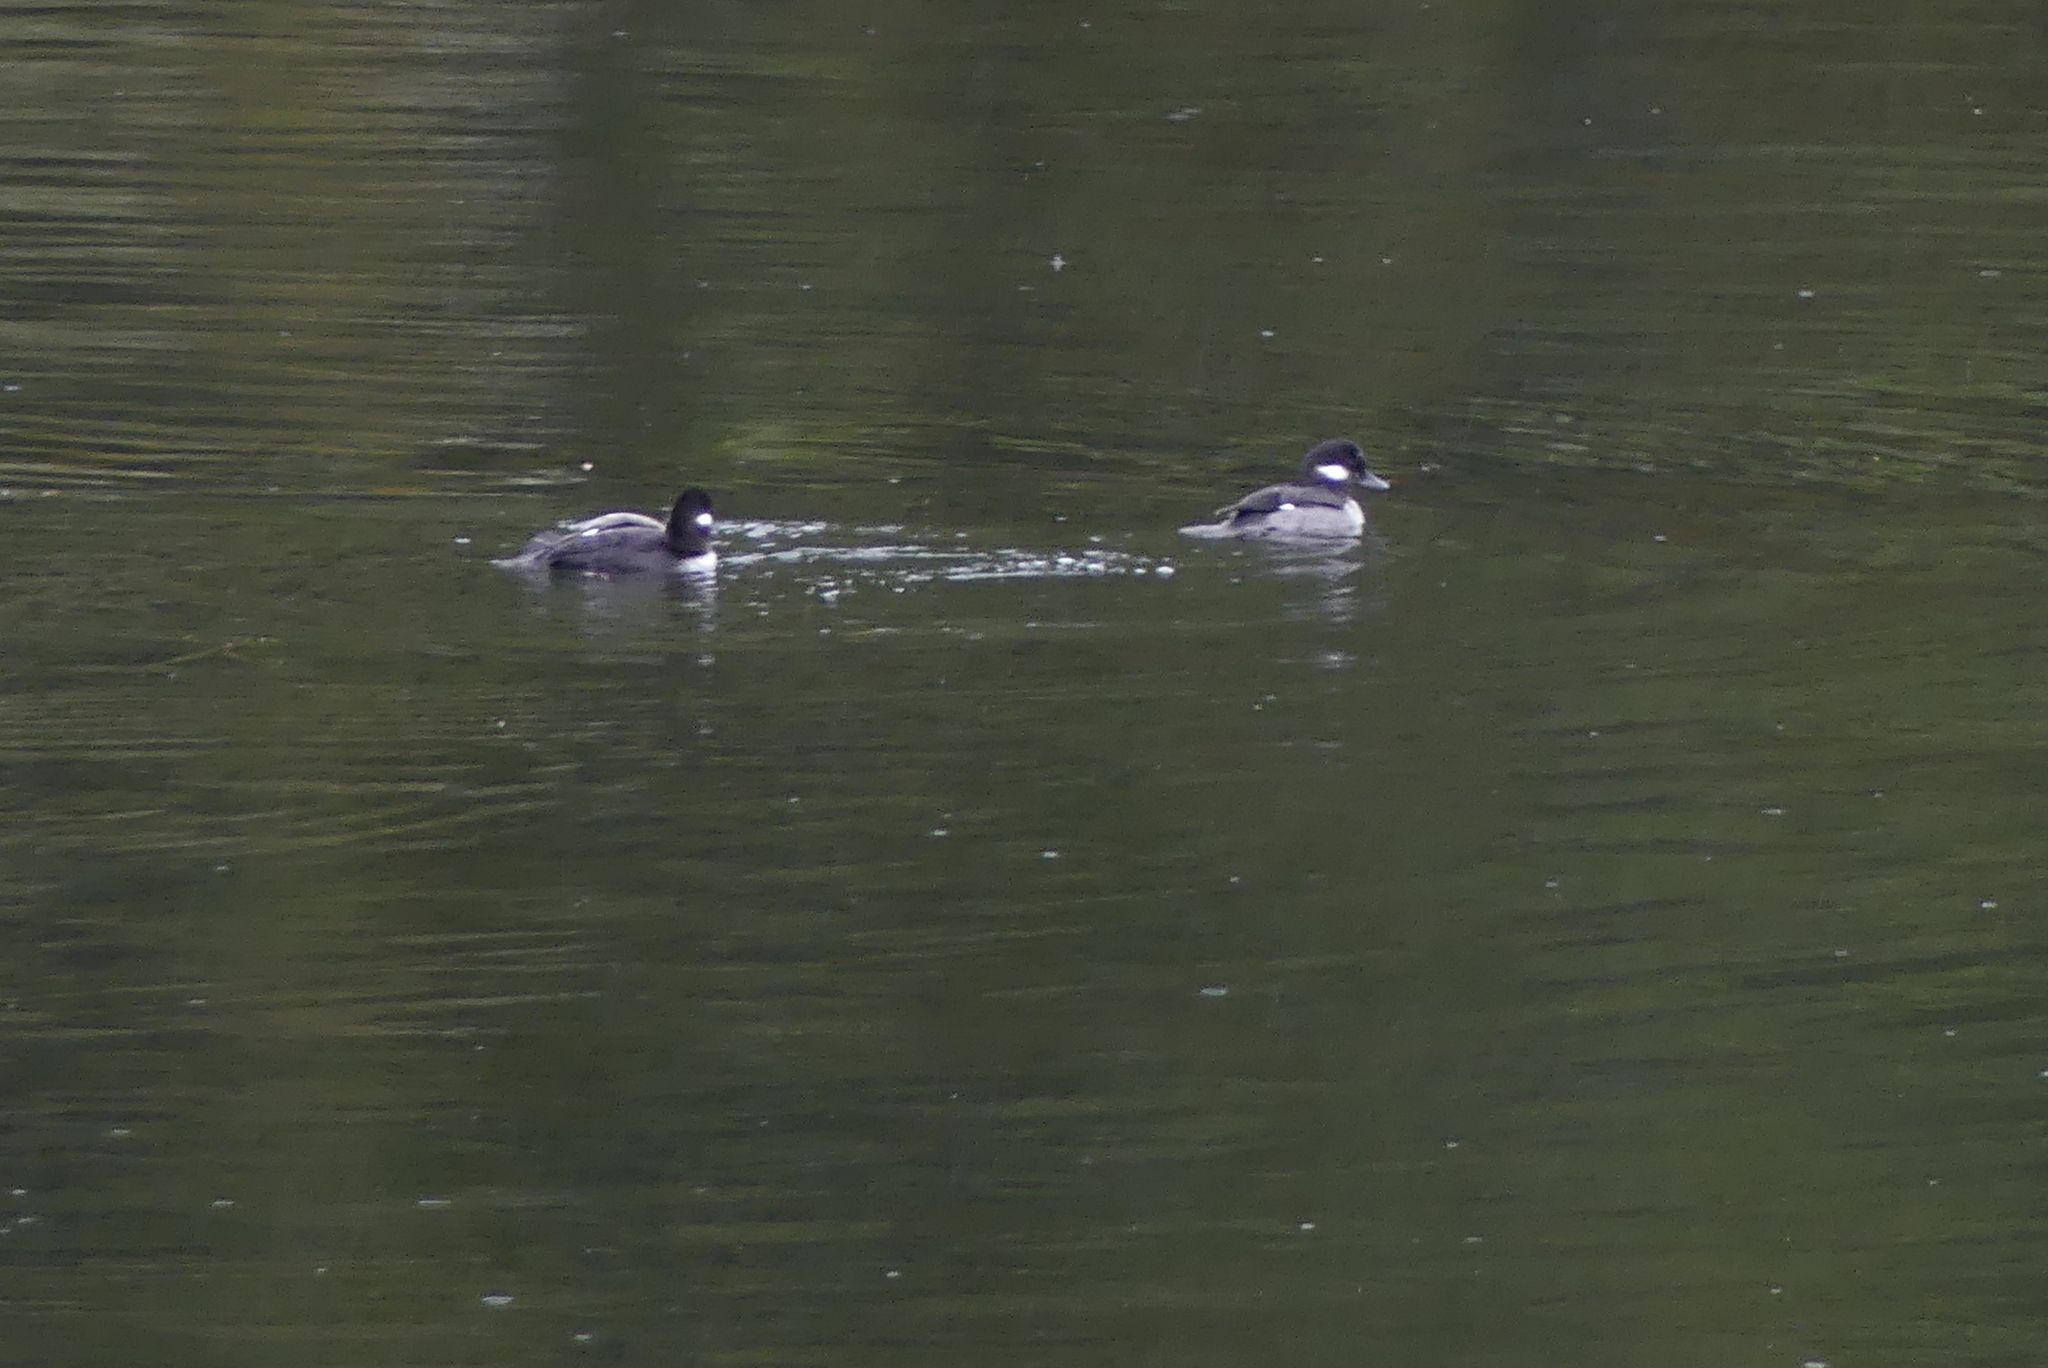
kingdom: Animalia
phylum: Chordata
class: Aves
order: Anseriformes
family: Anatidae
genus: Bucephala
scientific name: Bucephala albeola
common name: Bufflehead
